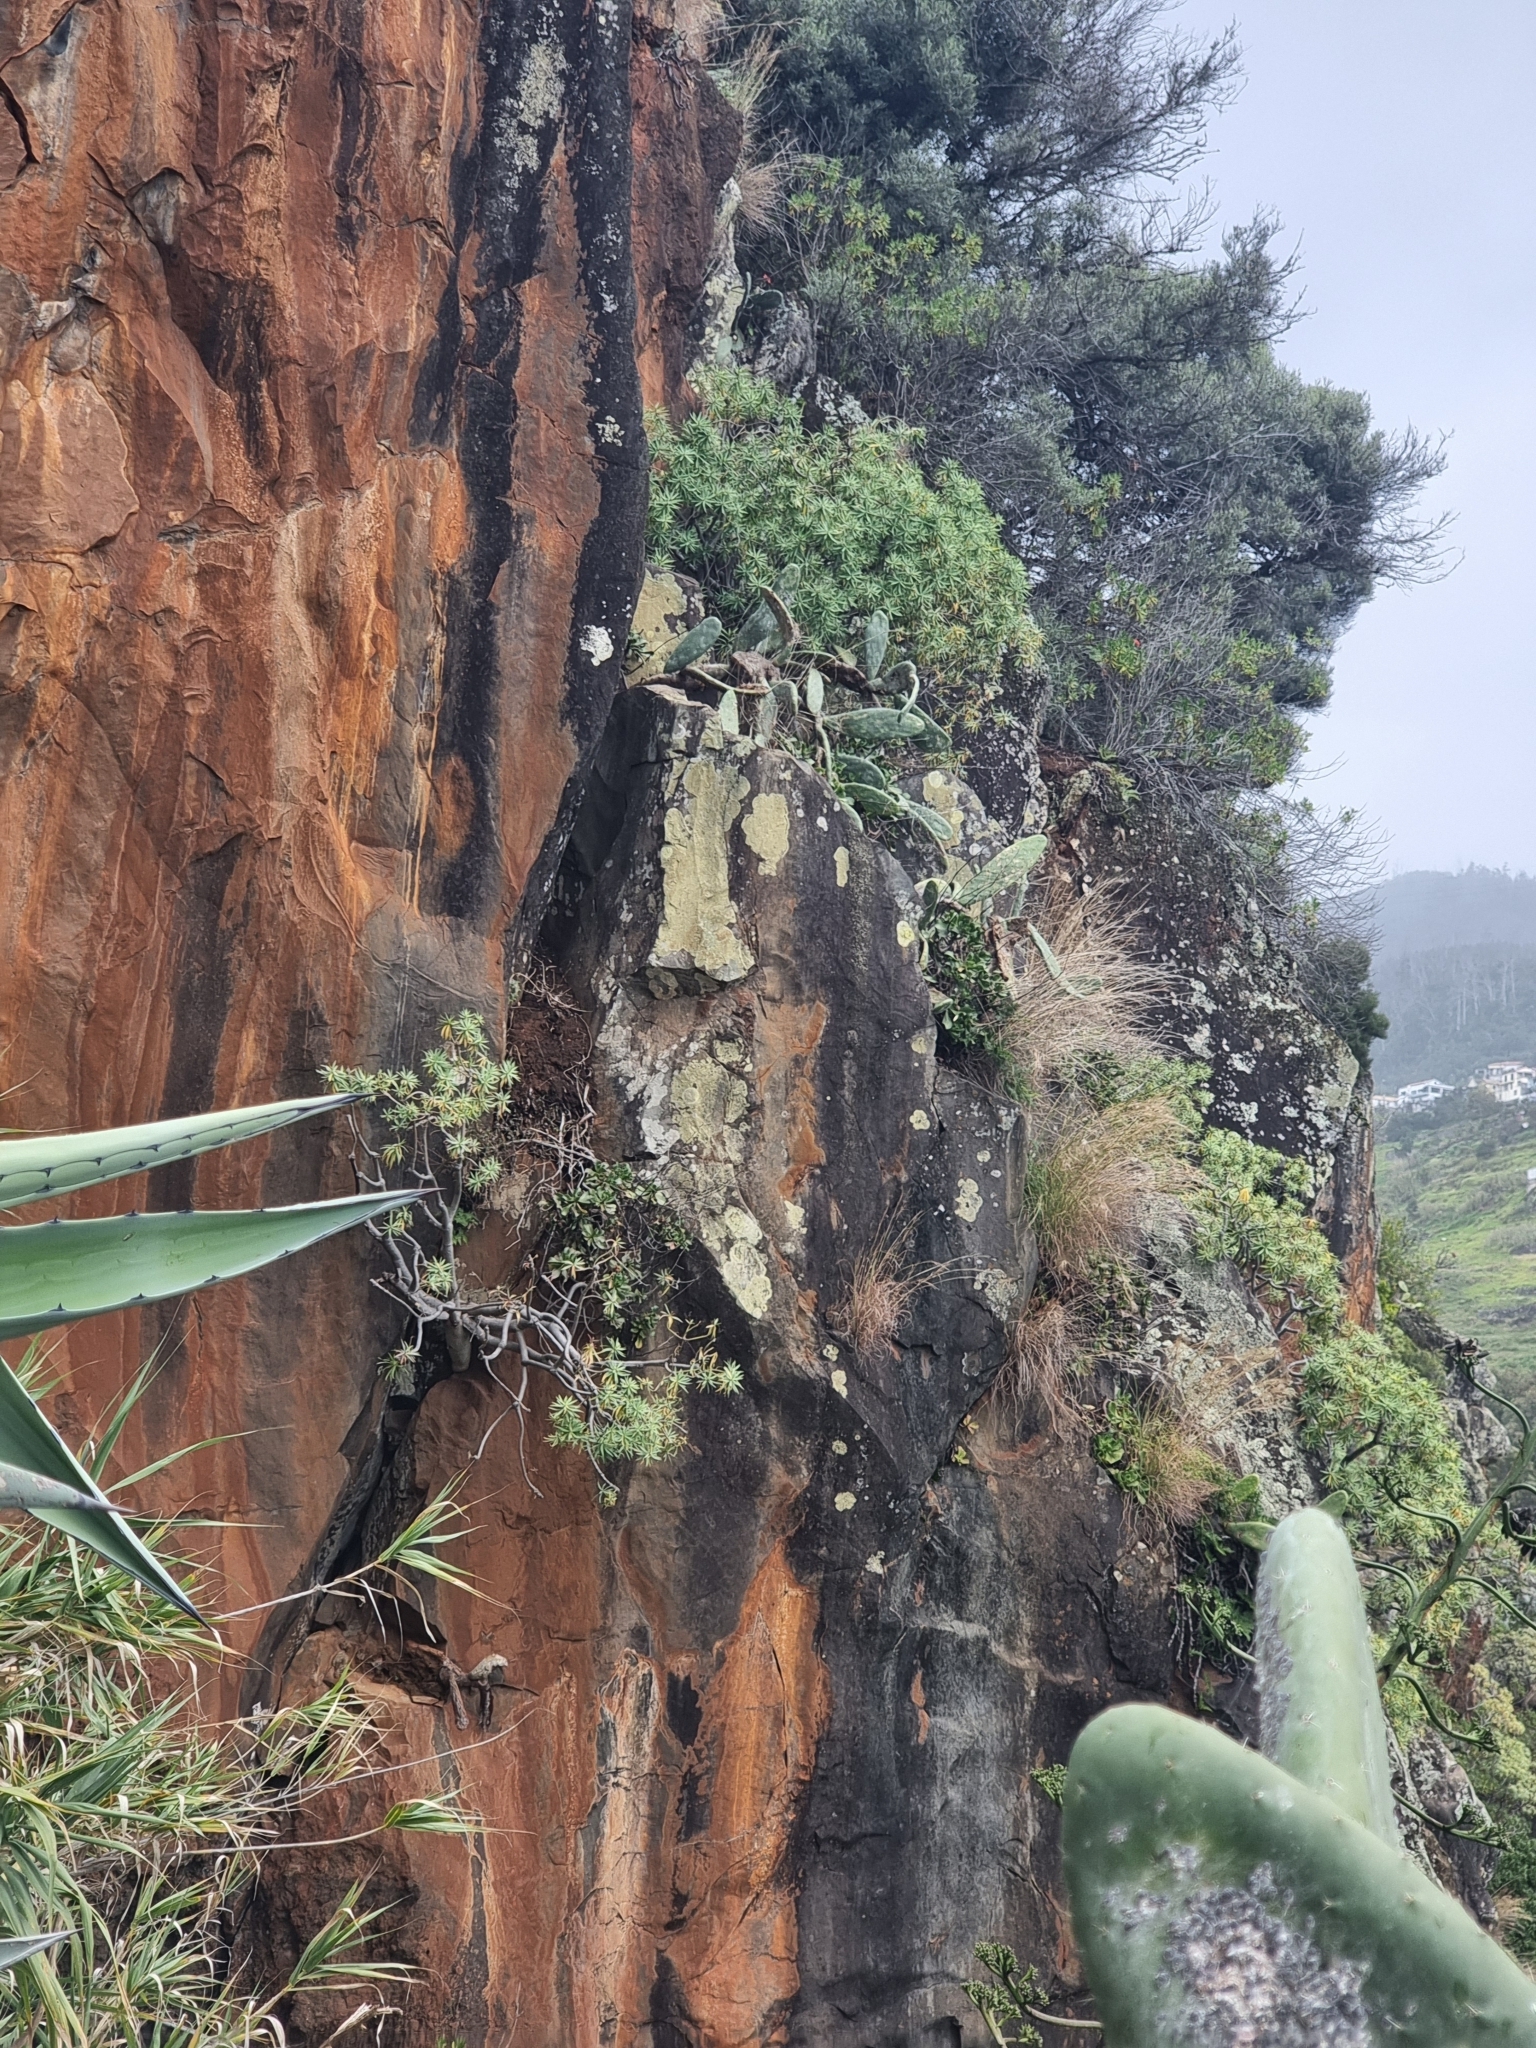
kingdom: Plantae
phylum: Tracheophyta
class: Magnoliopsida
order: Malpighiales
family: Euphorbiaceae
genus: Euphorbia
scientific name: Euphorbia piscatoria
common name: Fish-stunning spurge
